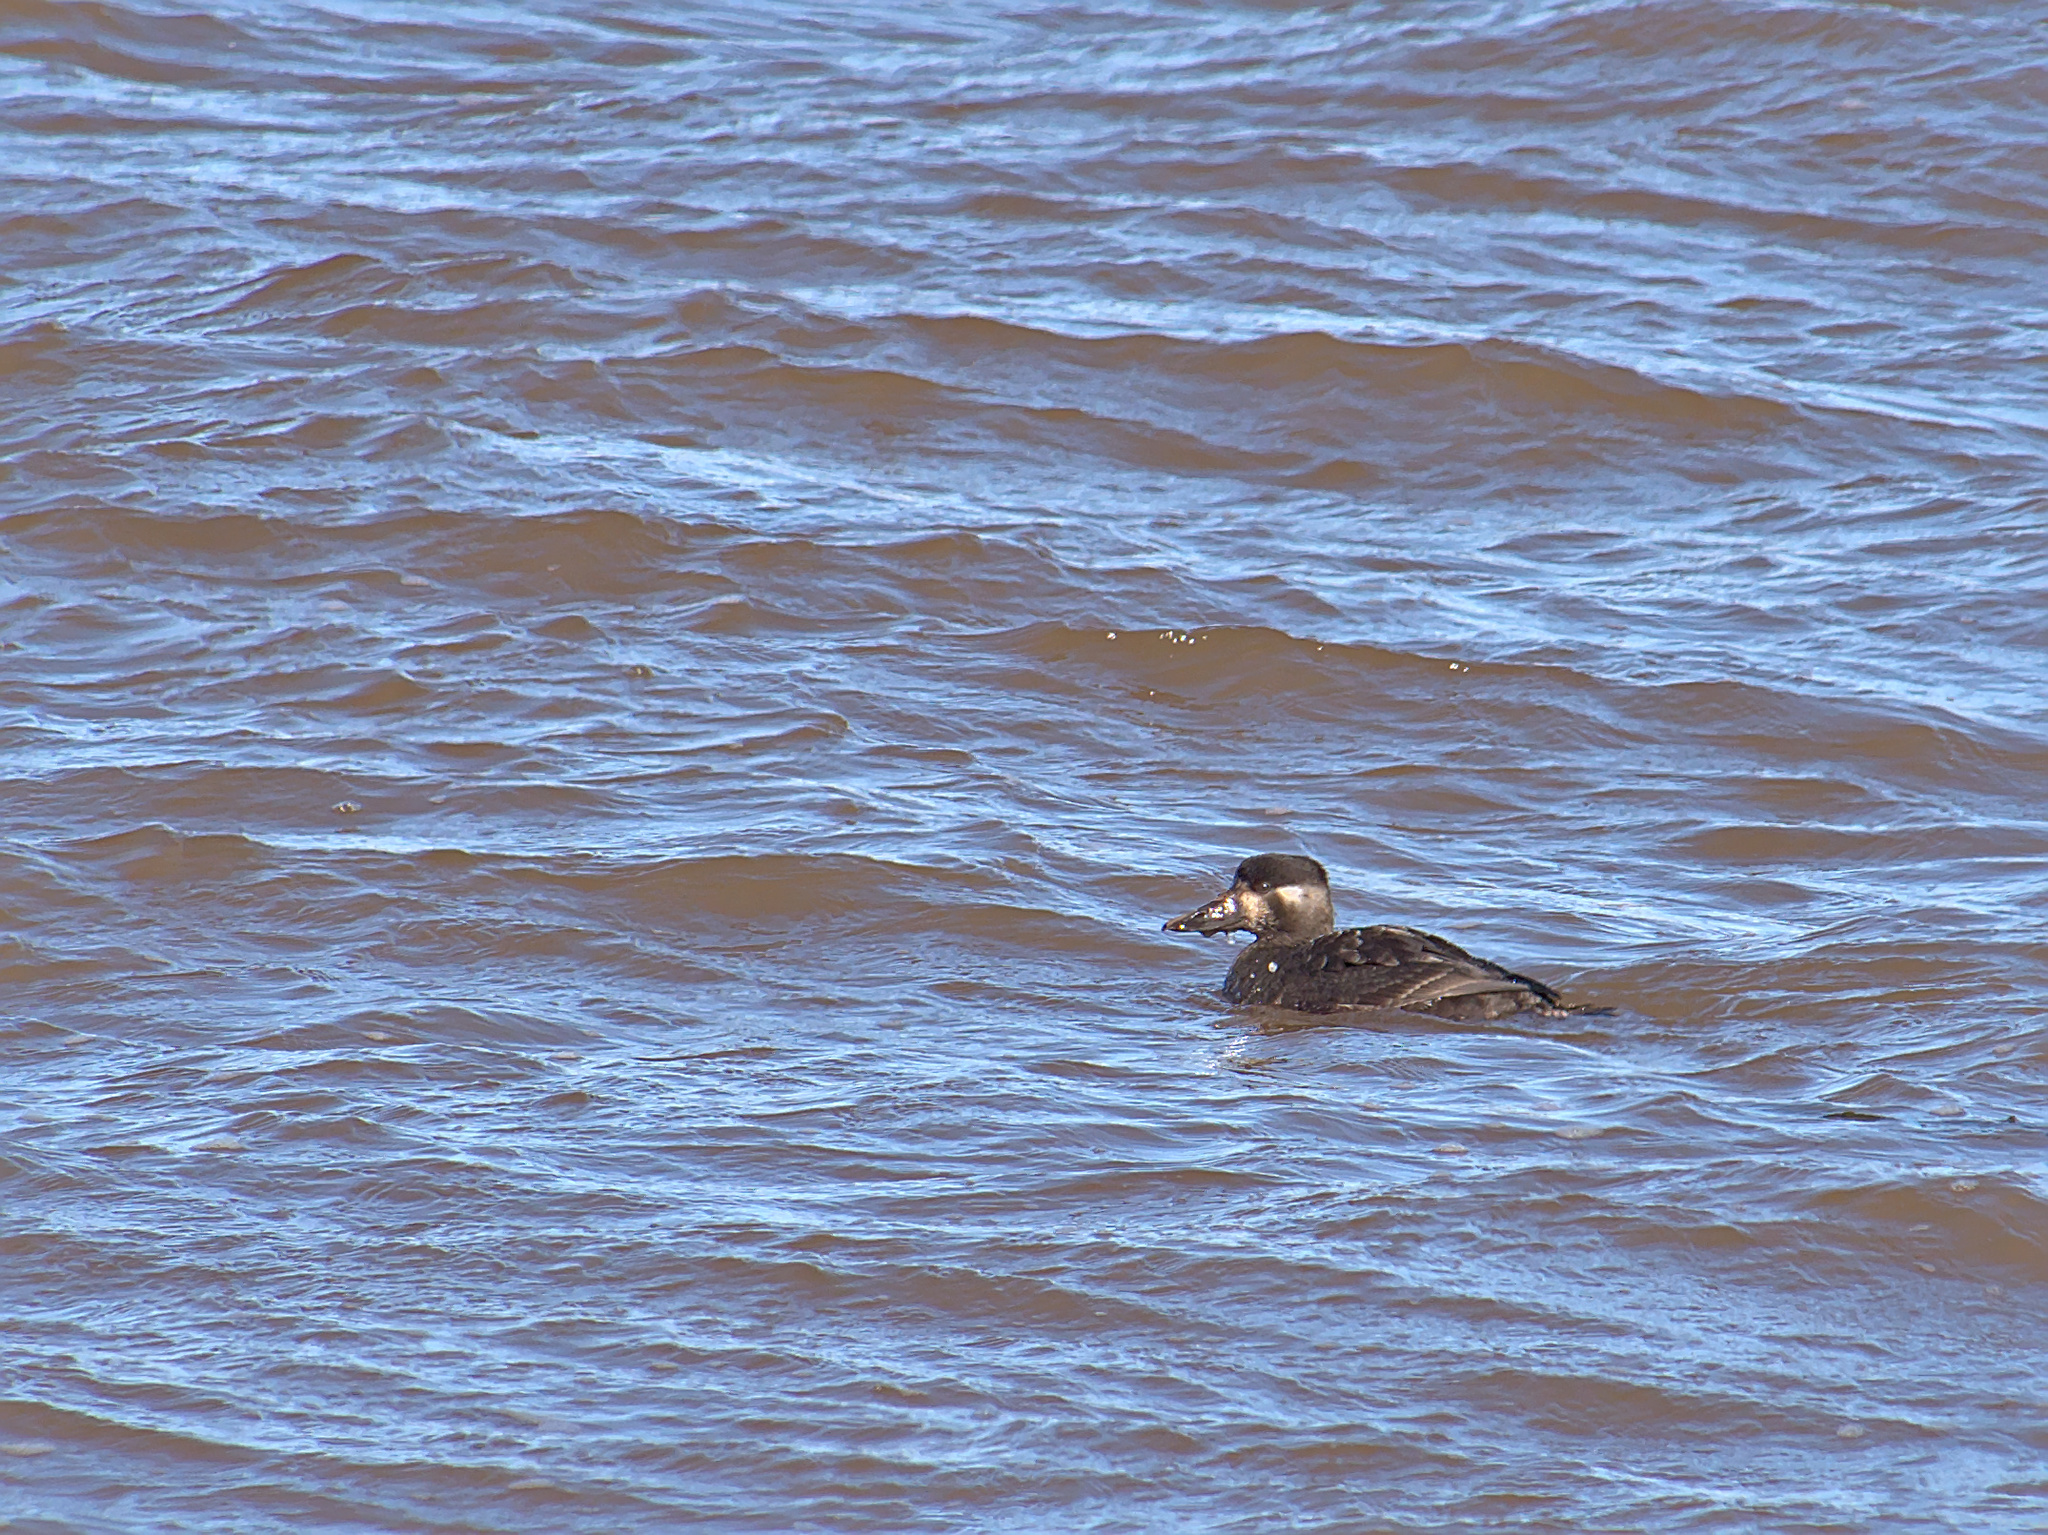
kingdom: Animalia
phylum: Chordata
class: Aves
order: Anseriformes
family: Anatidae
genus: Melanitta
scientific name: Melanitta perspicillata
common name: Surf scoter
